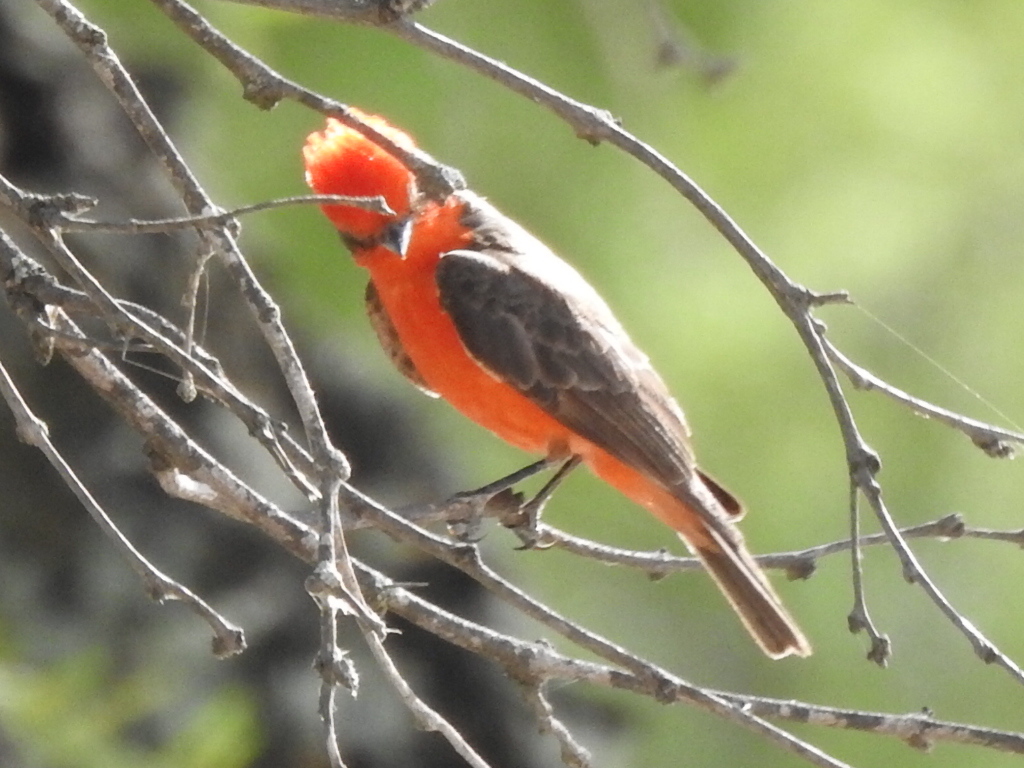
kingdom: Animalia
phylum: Chordata
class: Aves
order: Passeriformes
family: Tyrannidae
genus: Pyrocephalus
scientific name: Pyrocephalus rubinus
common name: Vermilion flycatcher
